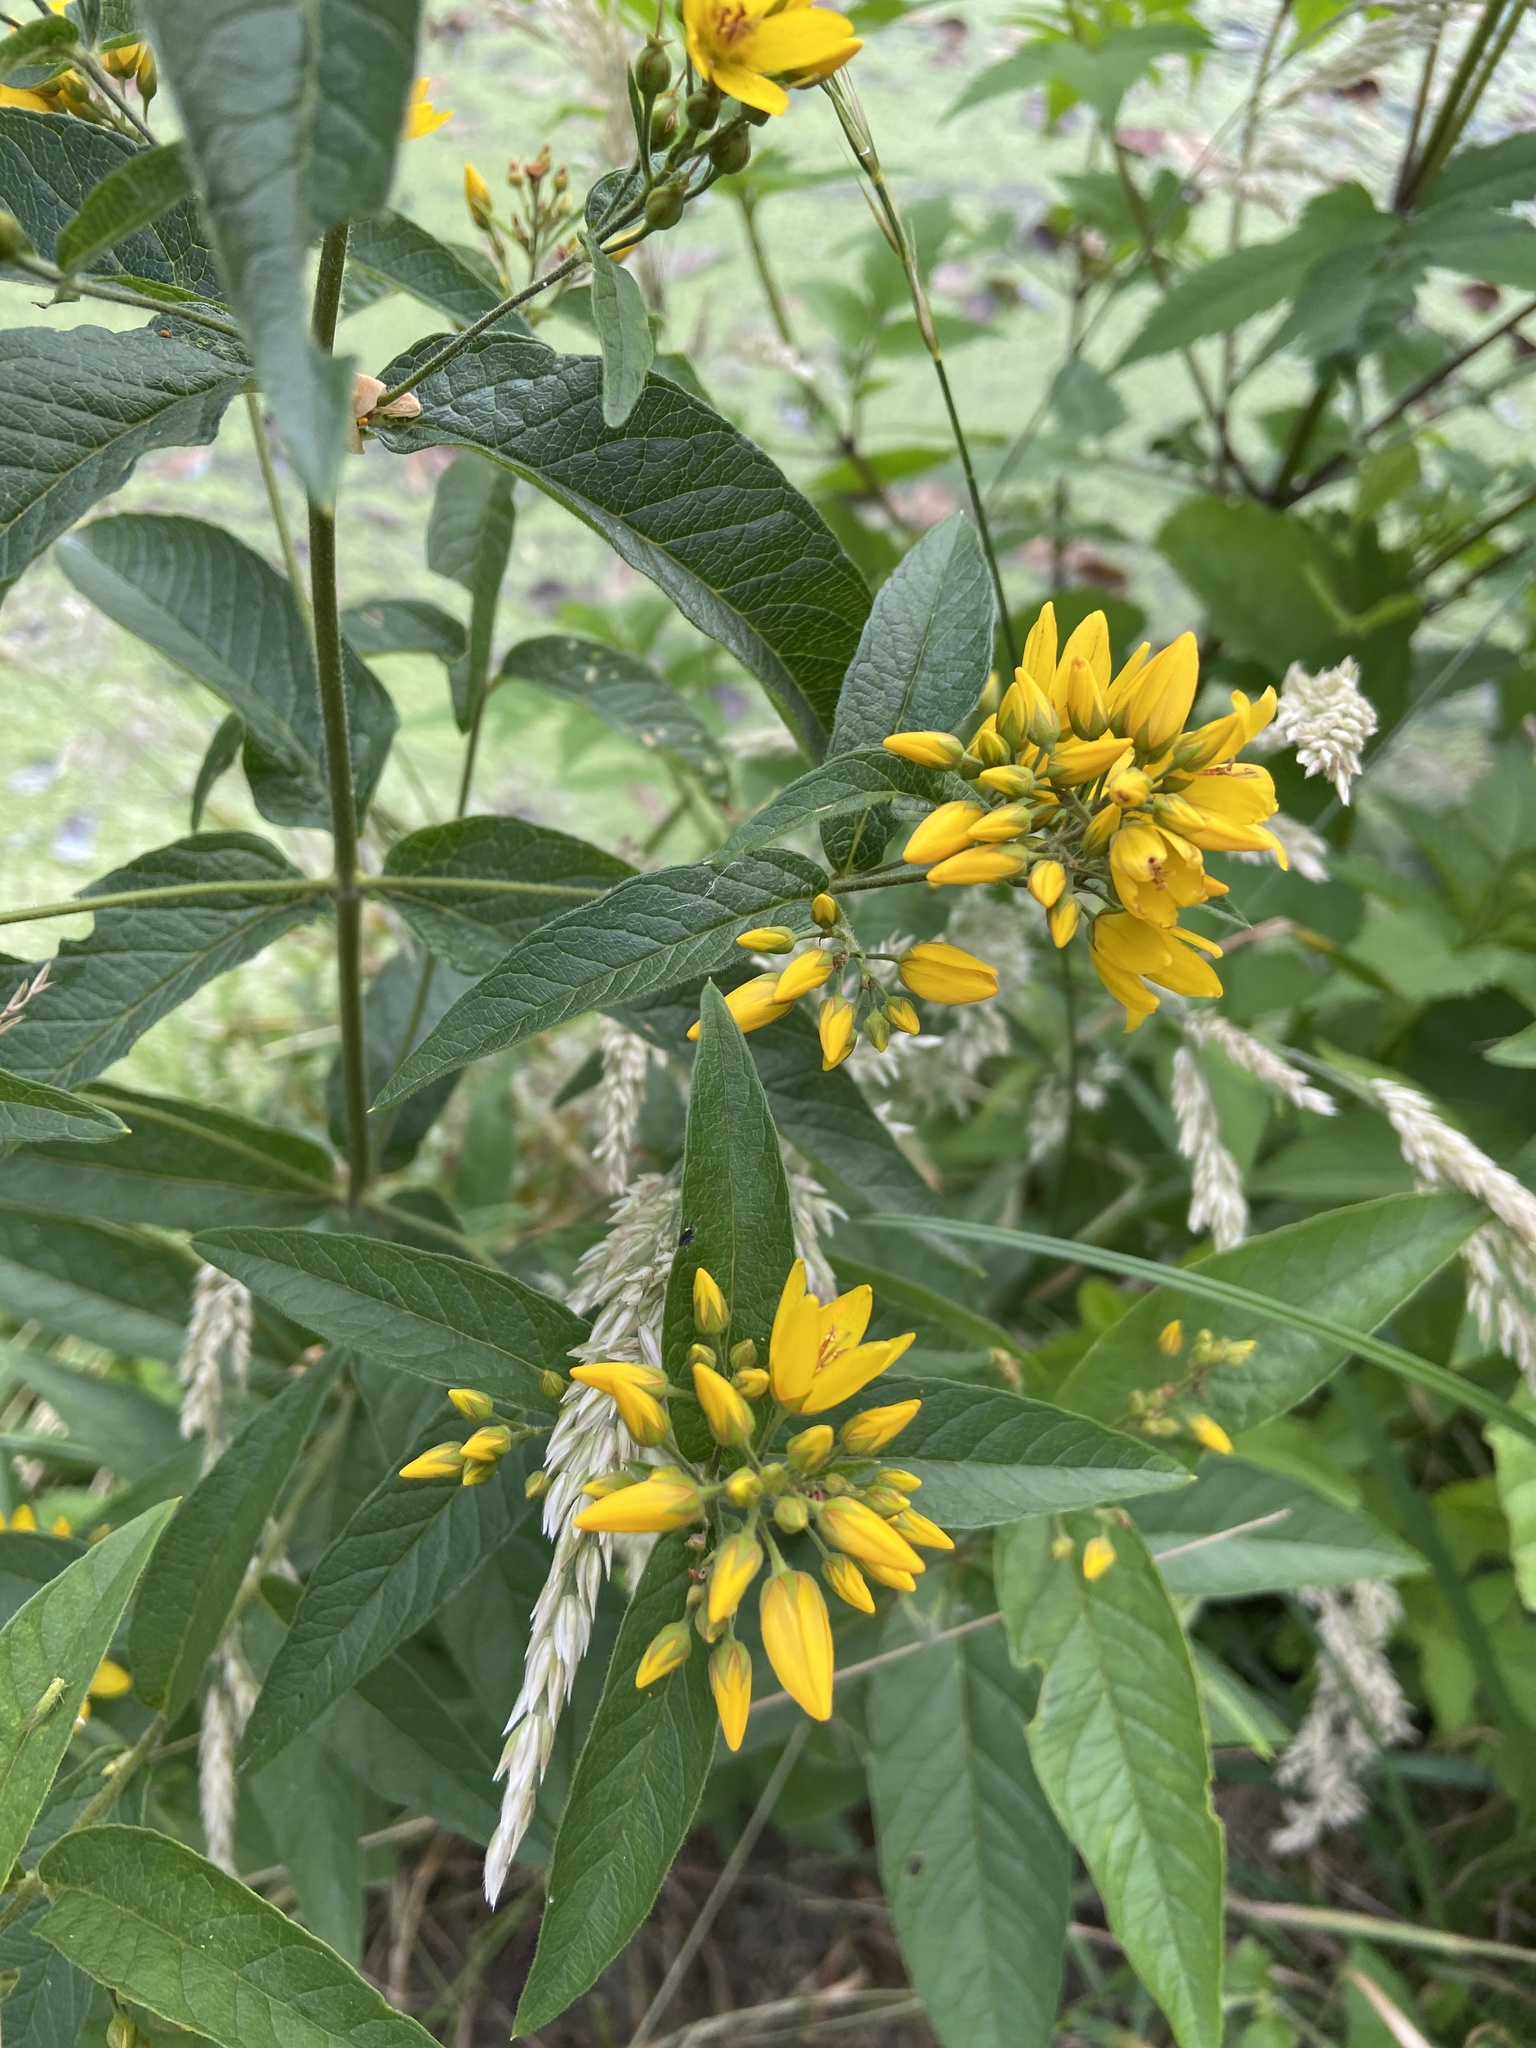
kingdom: Plantae
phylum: Tracheophyta
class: Magnoliopsida
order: Ericales
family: Primulaceae
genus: Lysimachia
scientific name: Lysimachia vulgaris
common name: Yellow loosestrife
